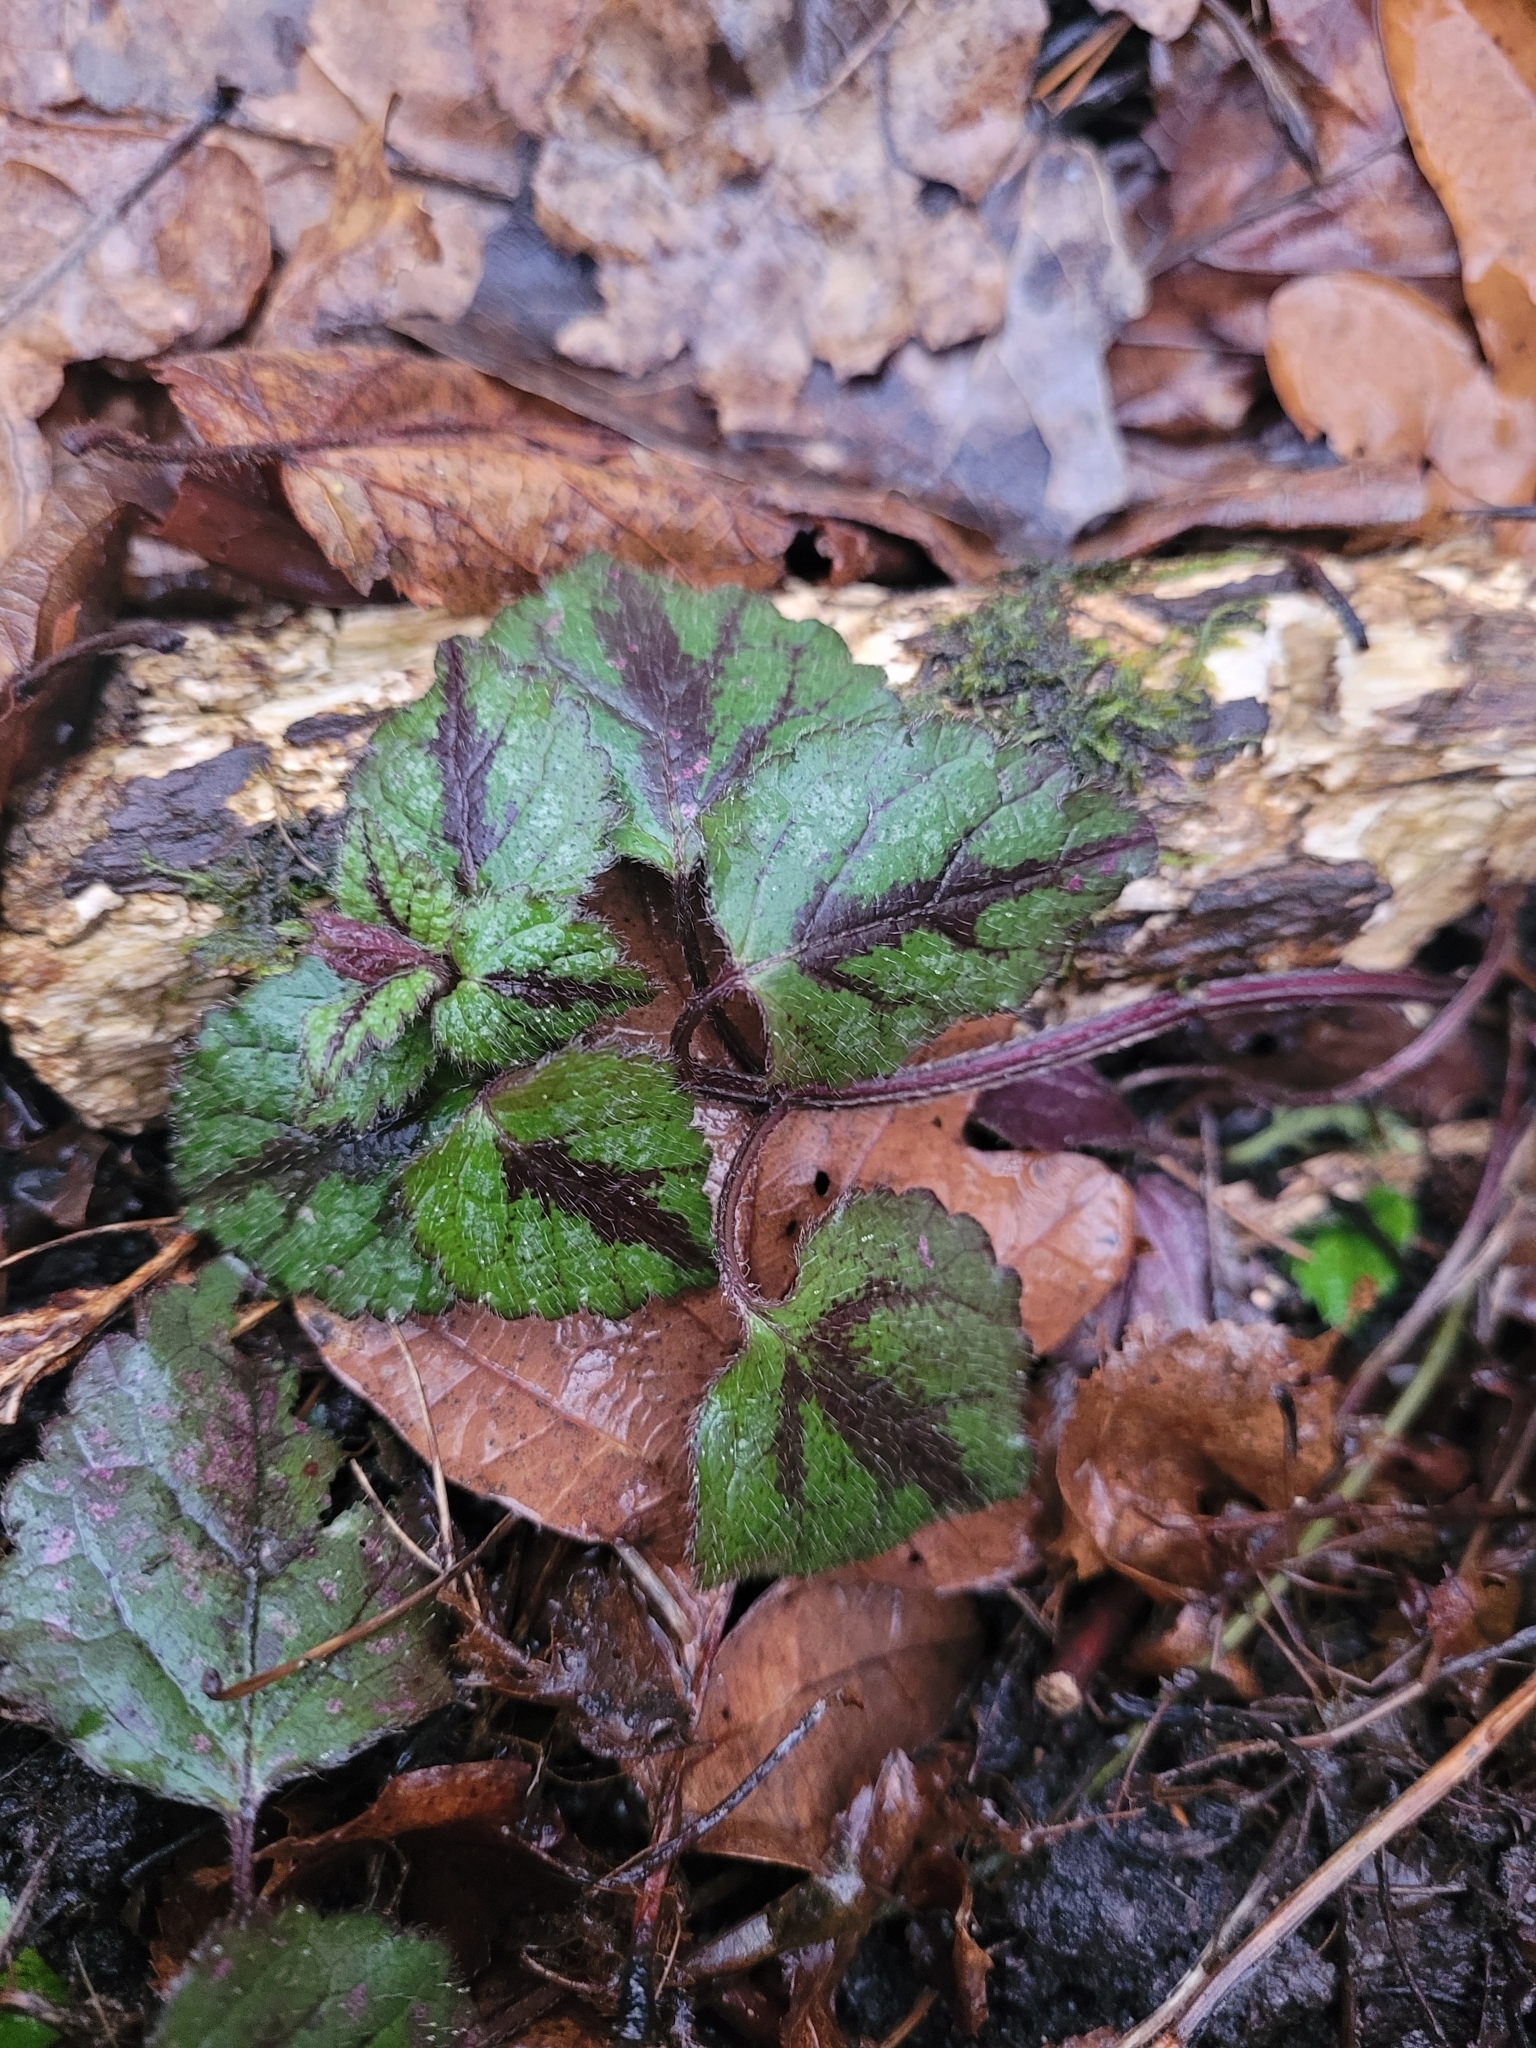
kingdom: Plantae
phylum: Tracheophyta
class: Magnoliopsida
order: Lamiales
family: Lamiaceae
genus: Lamium
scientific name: Lamium galeobdolon
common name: Yellow archangel
